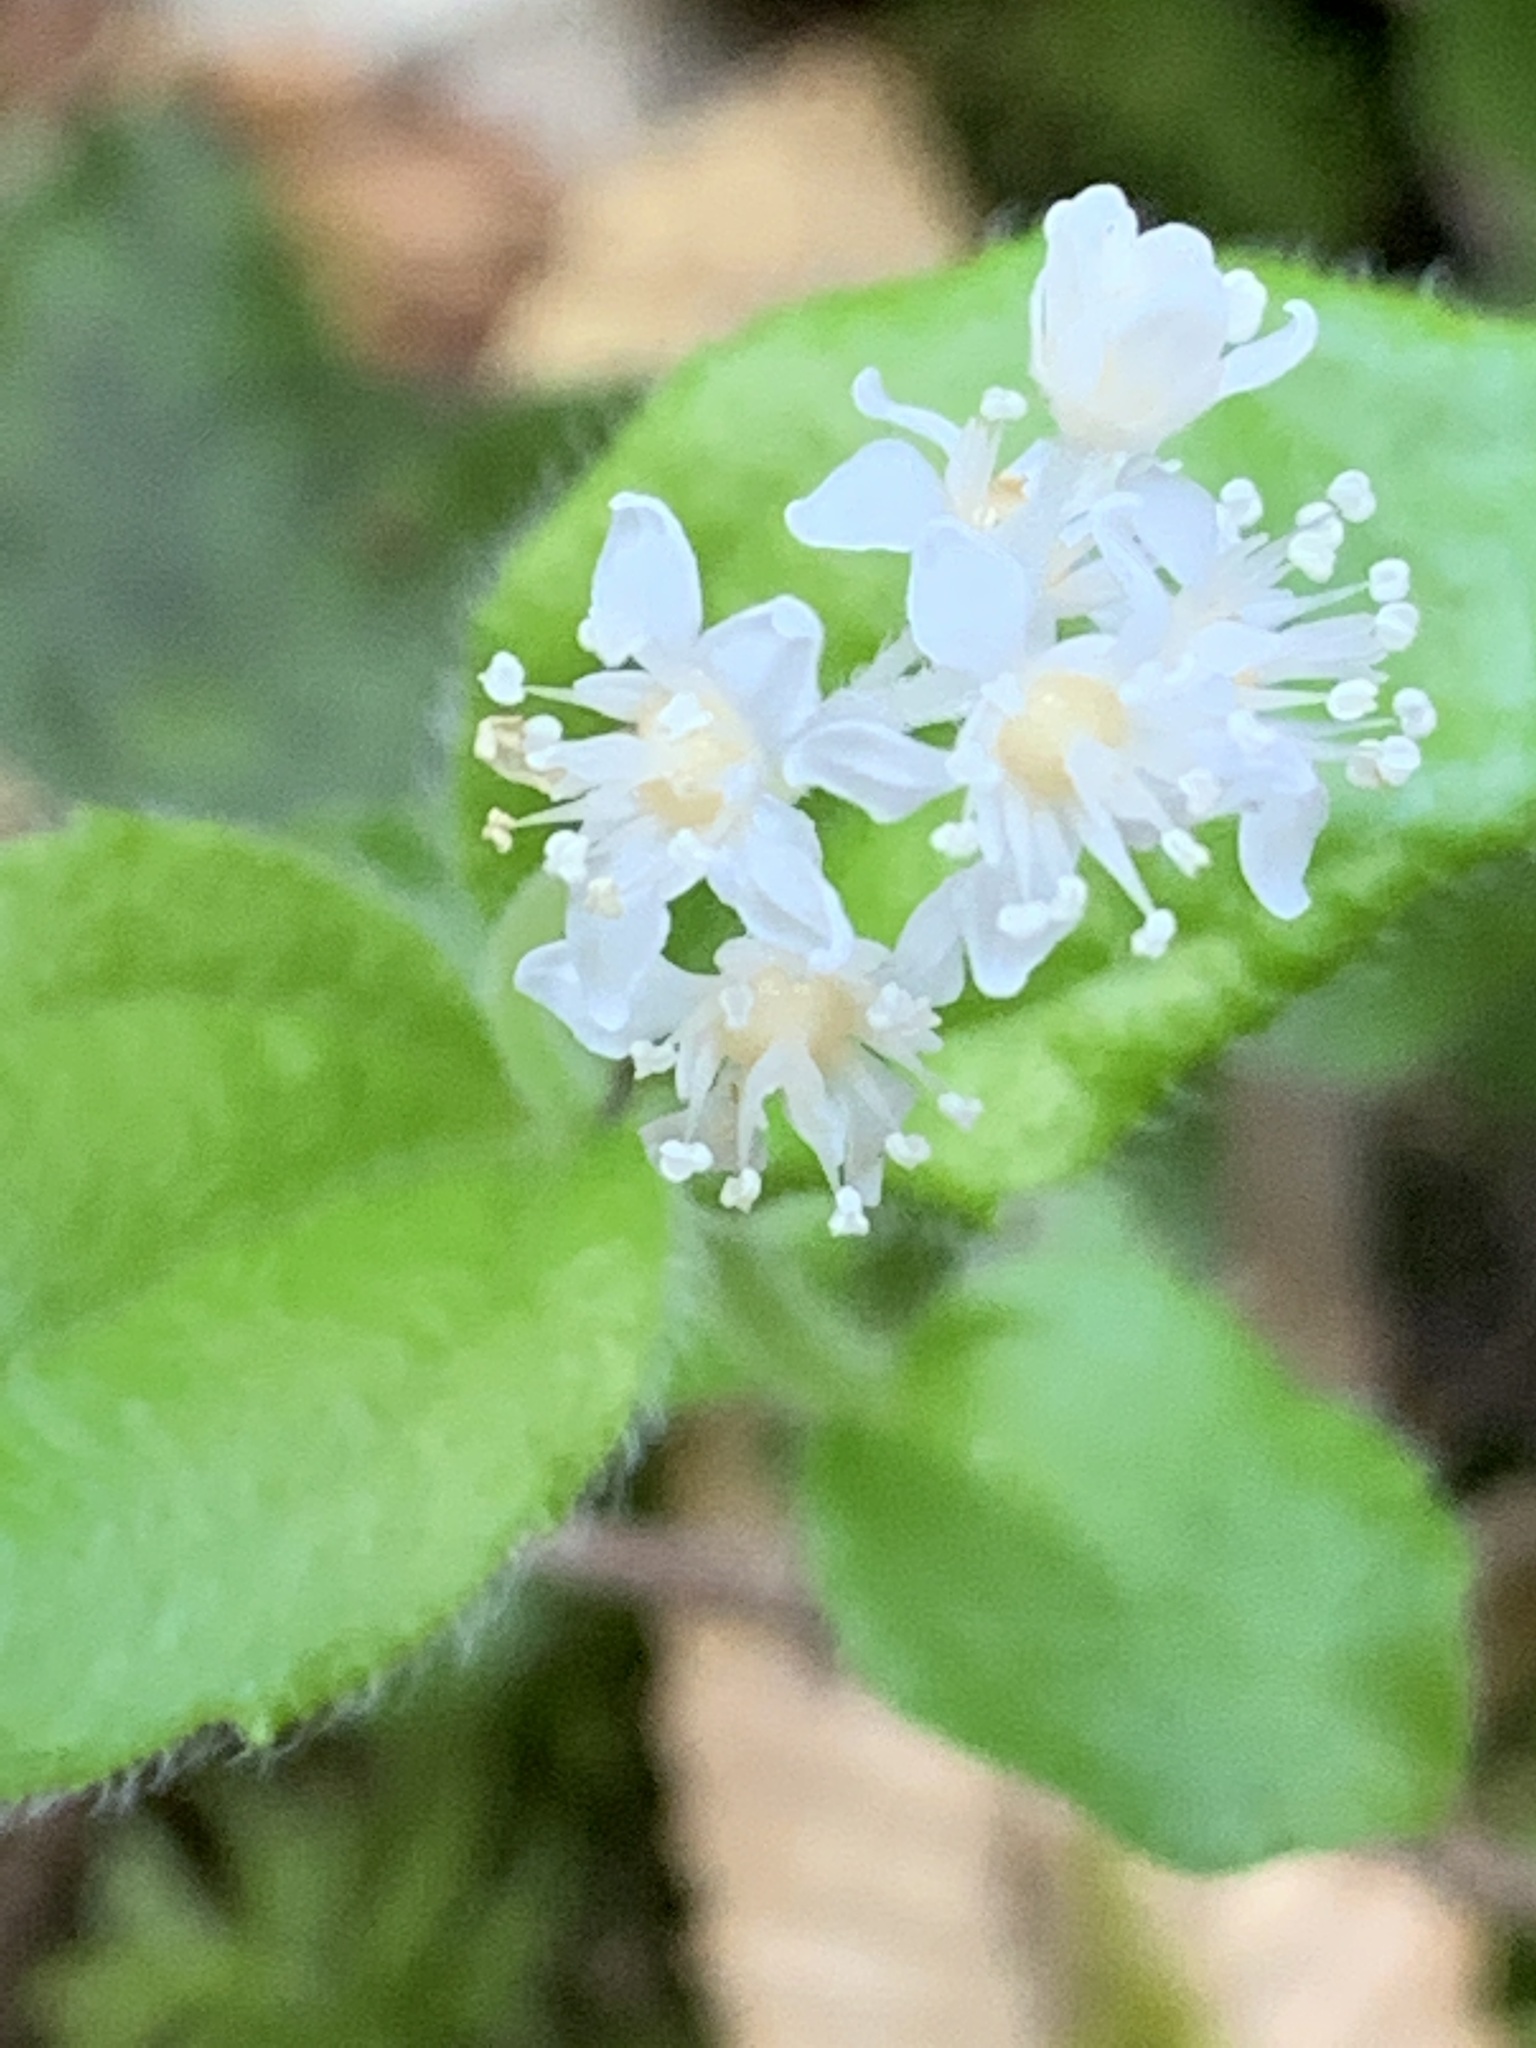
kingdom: Plantae
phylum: Tracheophyta
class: Magnoliopsida
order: Cornales
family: Hydrangeaceae
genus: Whipplea
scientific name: Whipplea modesta
